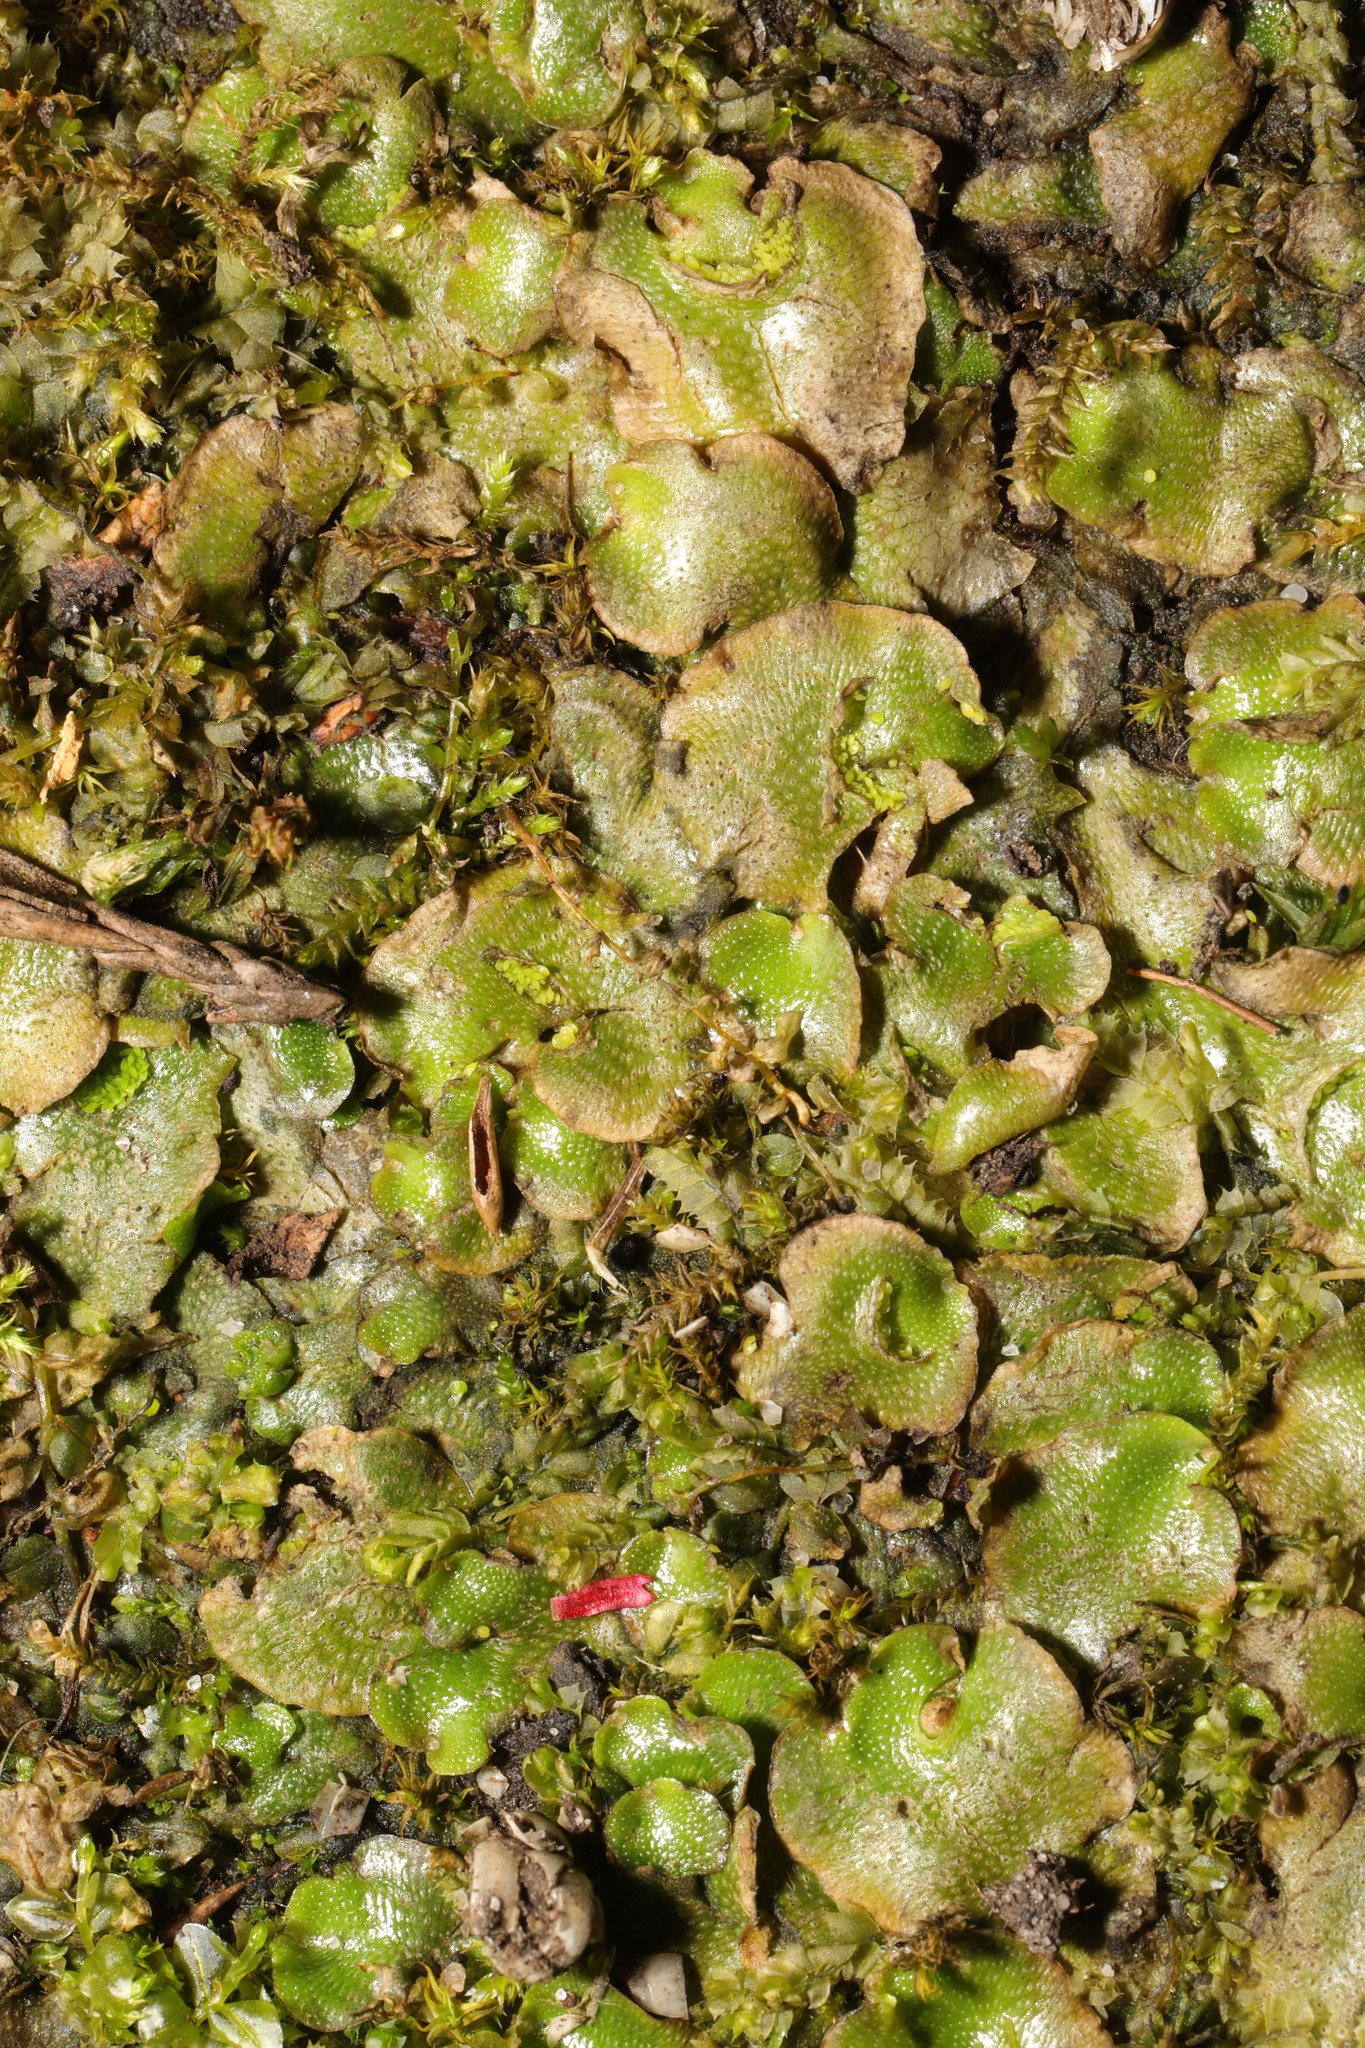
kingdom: Plantae
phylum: Marchantiophyta
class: Marchantiopsida
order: Lunulariales
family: Lunulariaceae
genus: Lunularia
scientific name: Lunularia cruciata
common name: Crescent-cup liverwort
